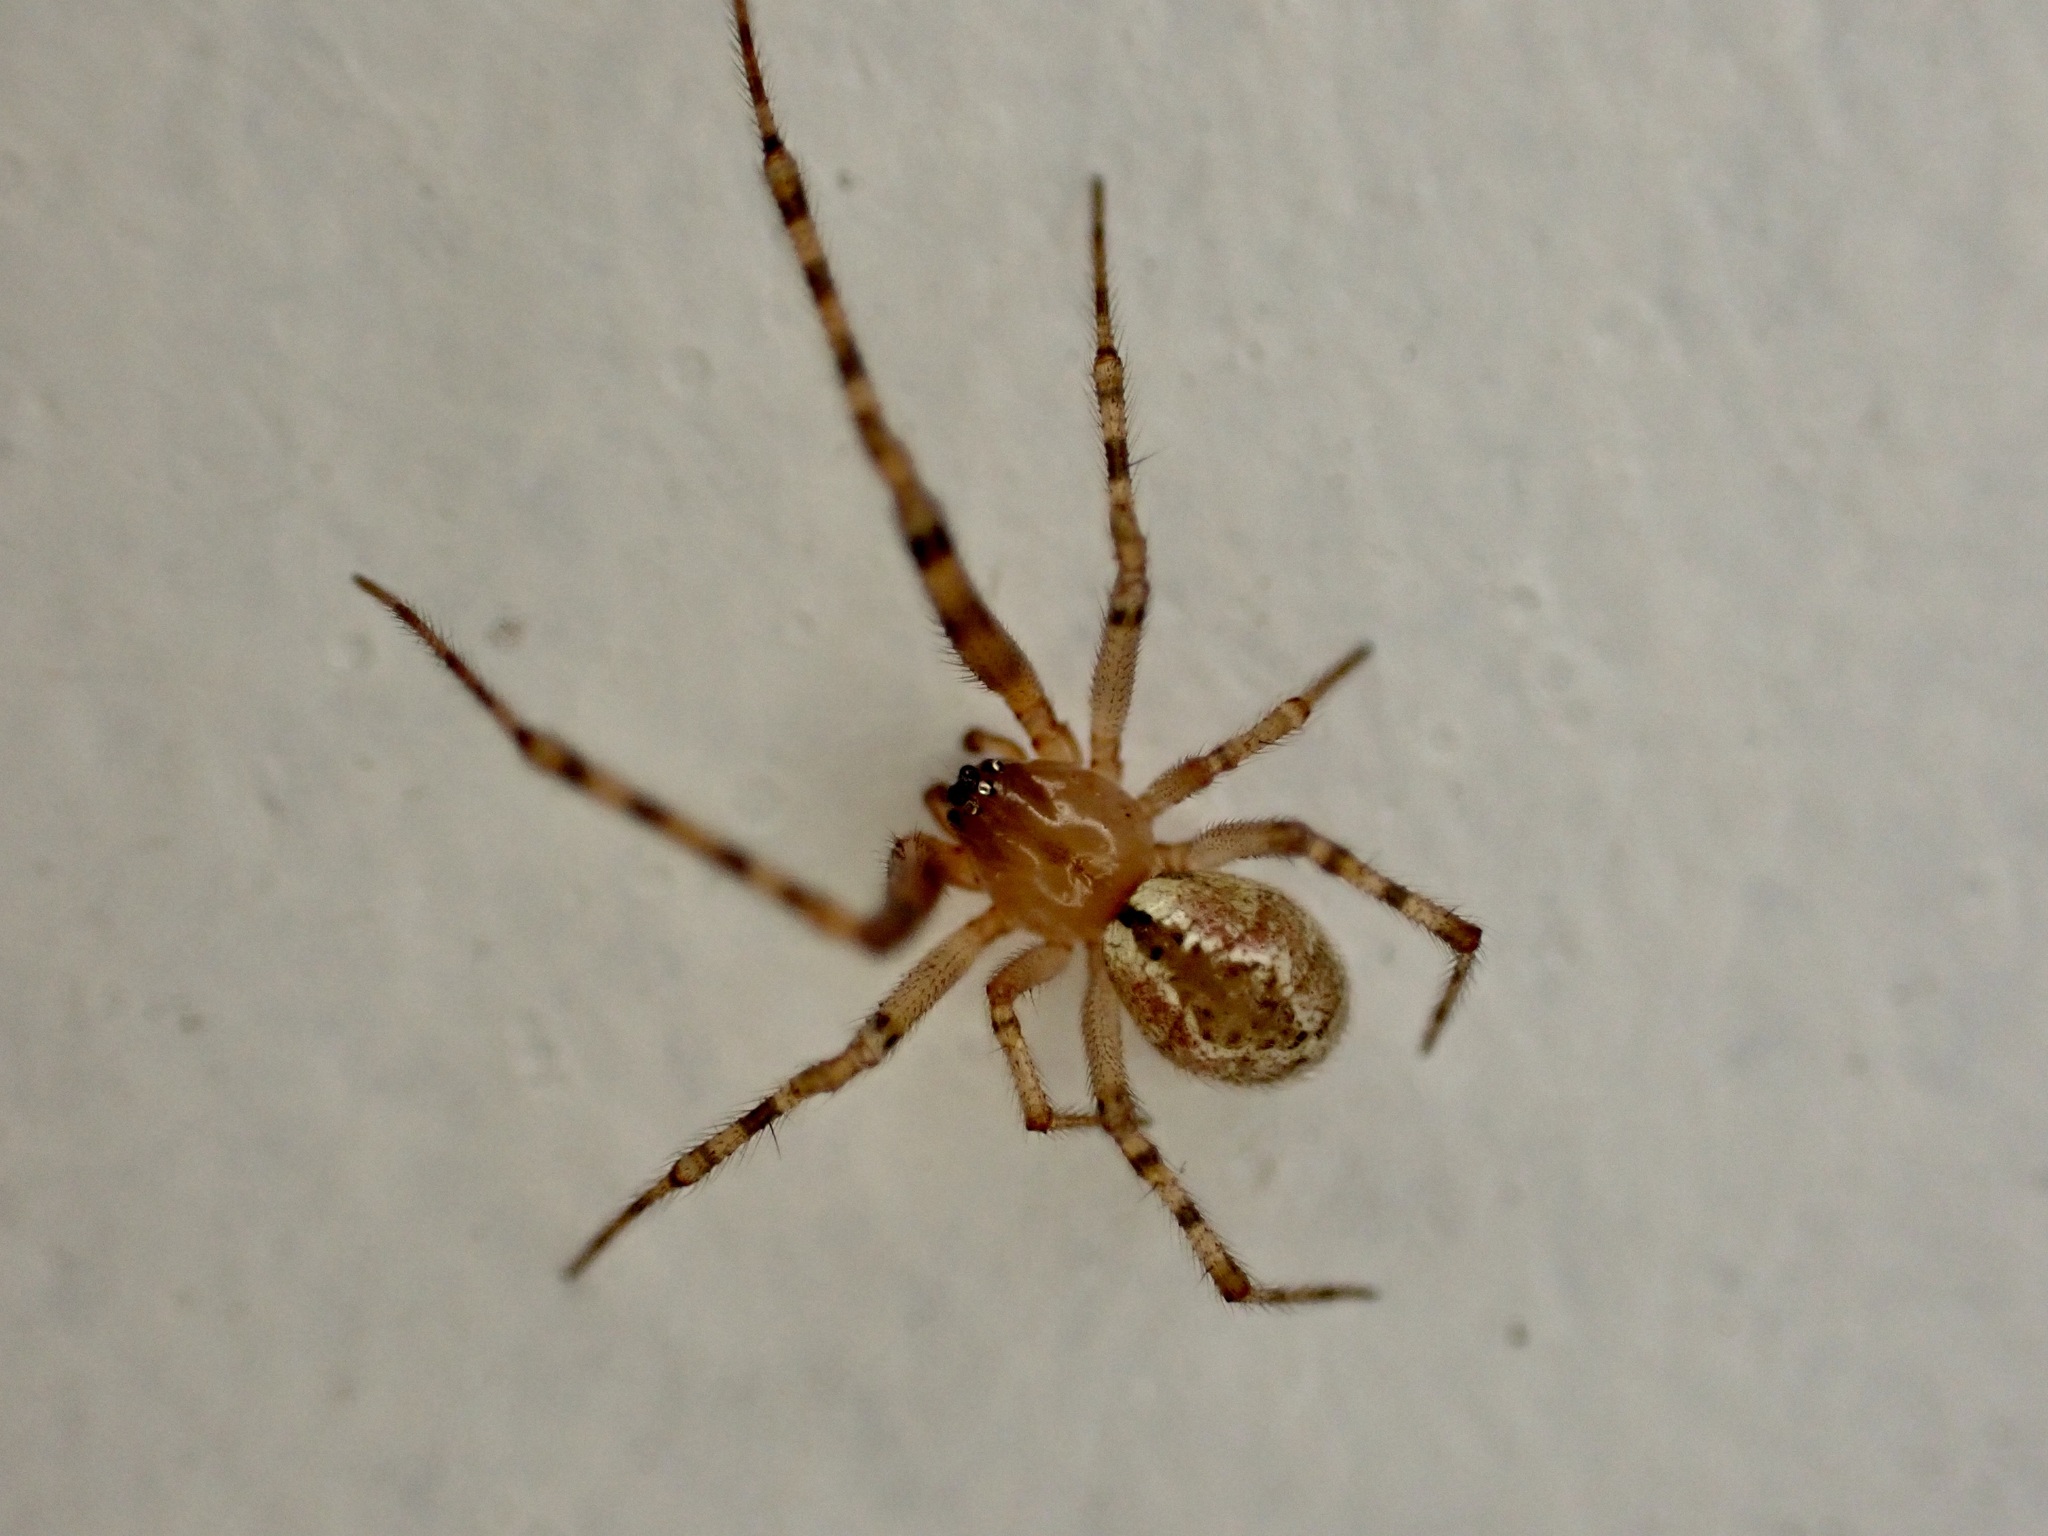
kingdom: Animalia
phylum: Arthropoda
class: Arachnida
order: Araneae
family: Theridiidae
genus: Cryptachaea
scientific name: Cryptachaea veruculata
